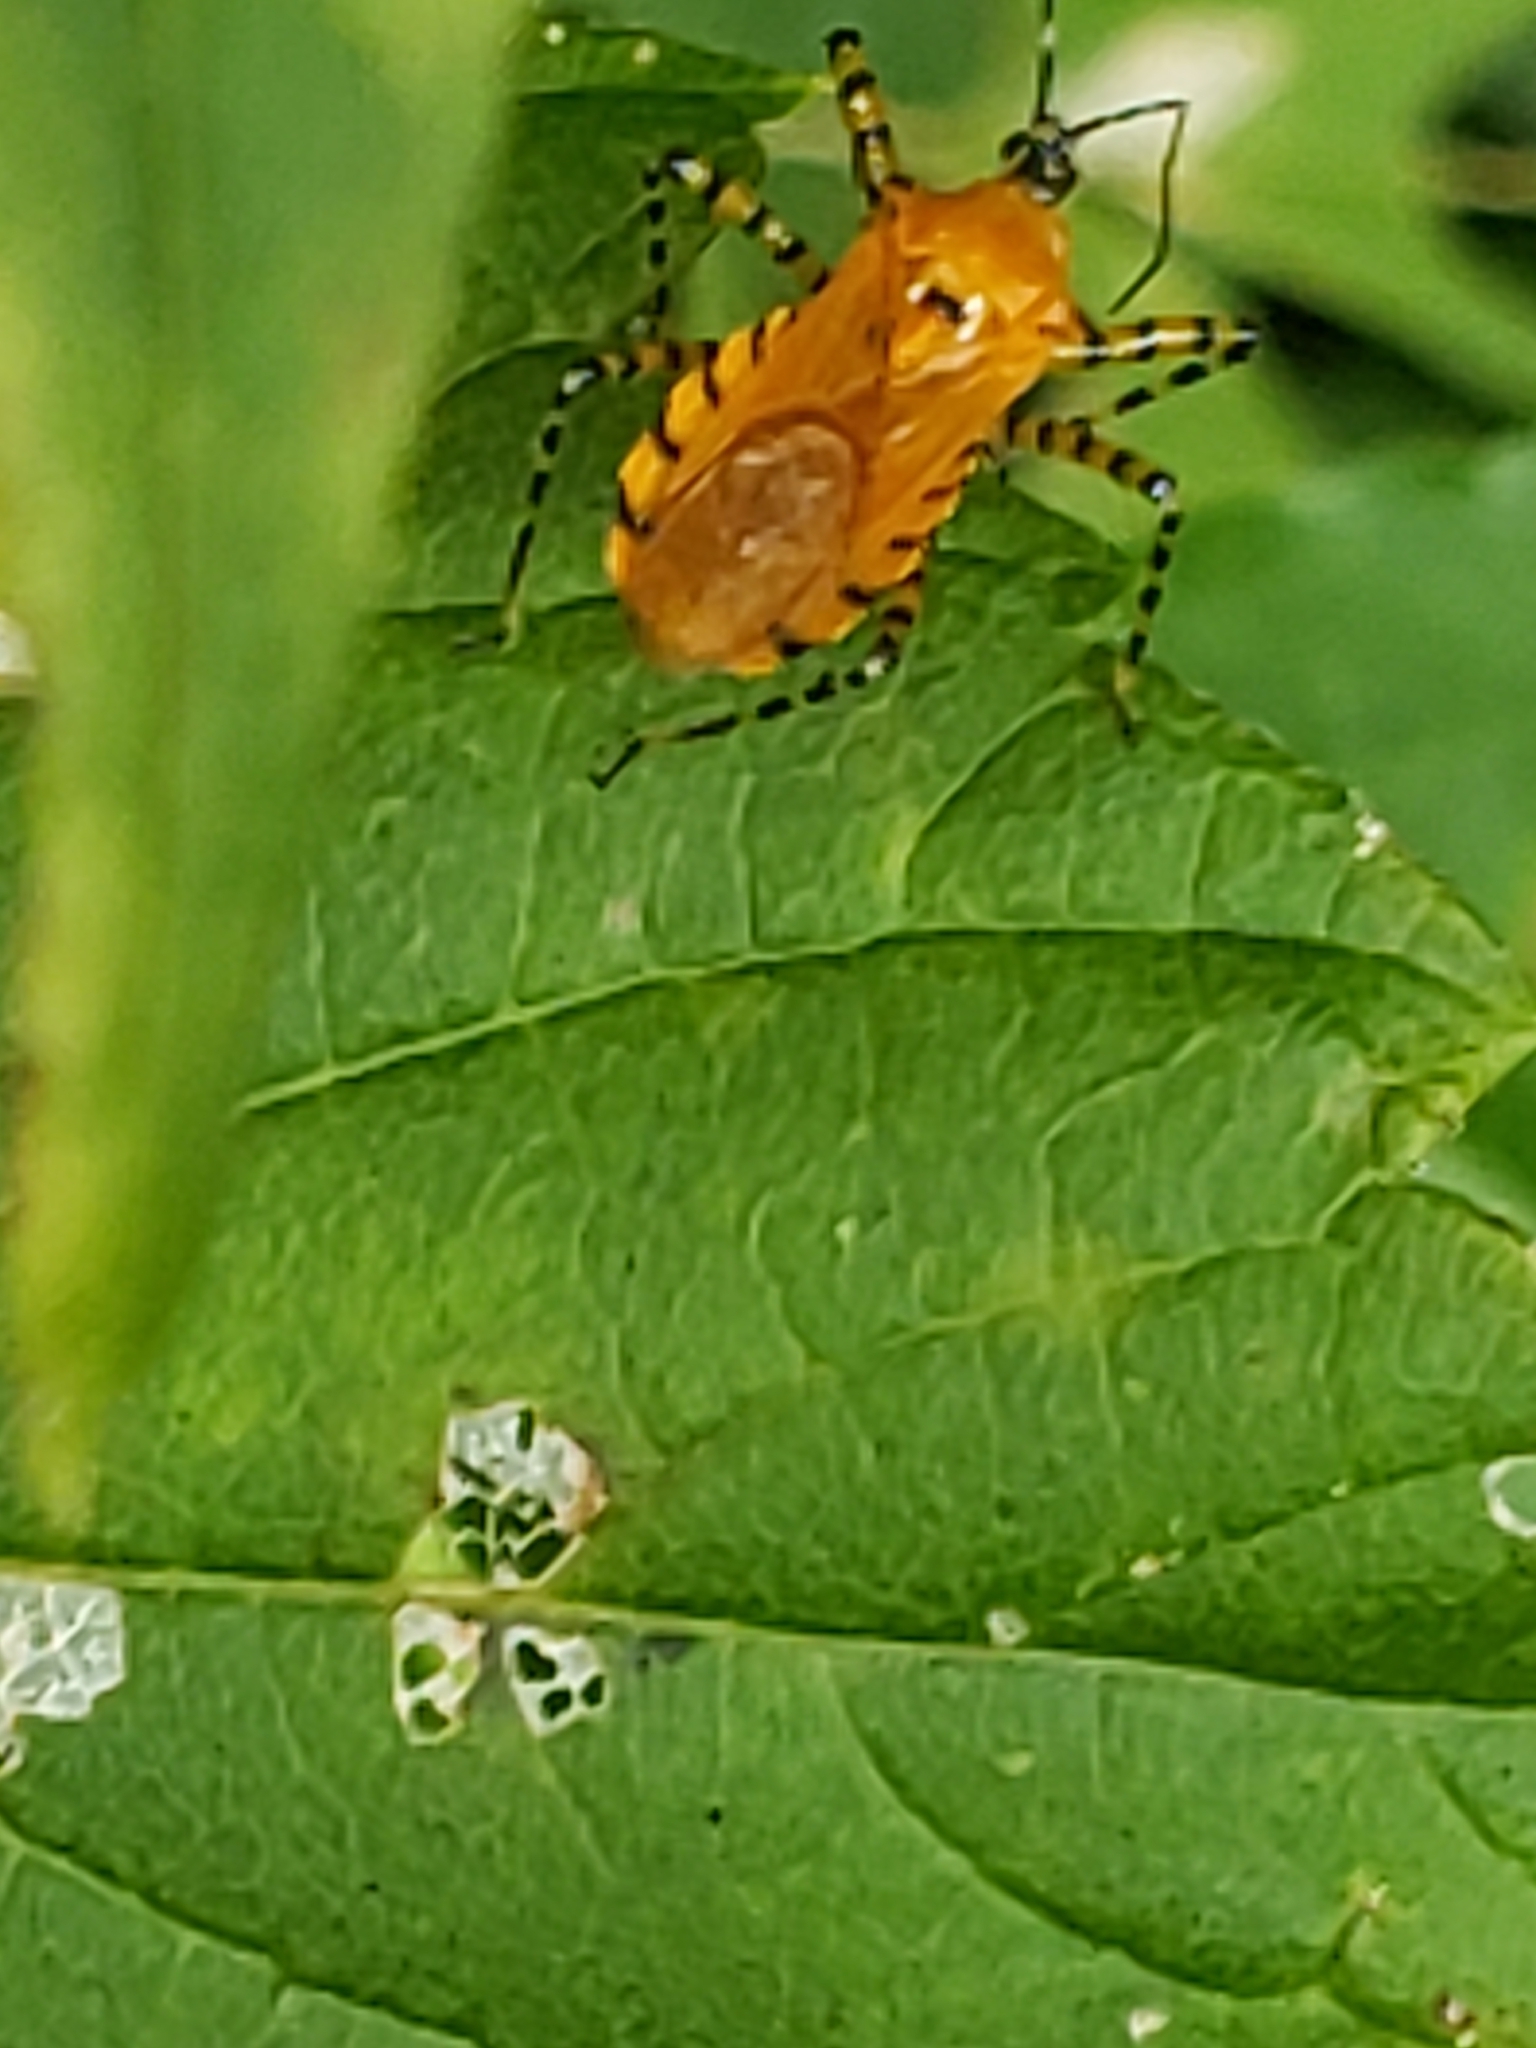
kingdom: Animalia
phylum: Arthropoda
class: Insecta
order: Hemiptera
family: Reduviidae
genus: Pselliopus
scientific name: Pselliopus barberi
